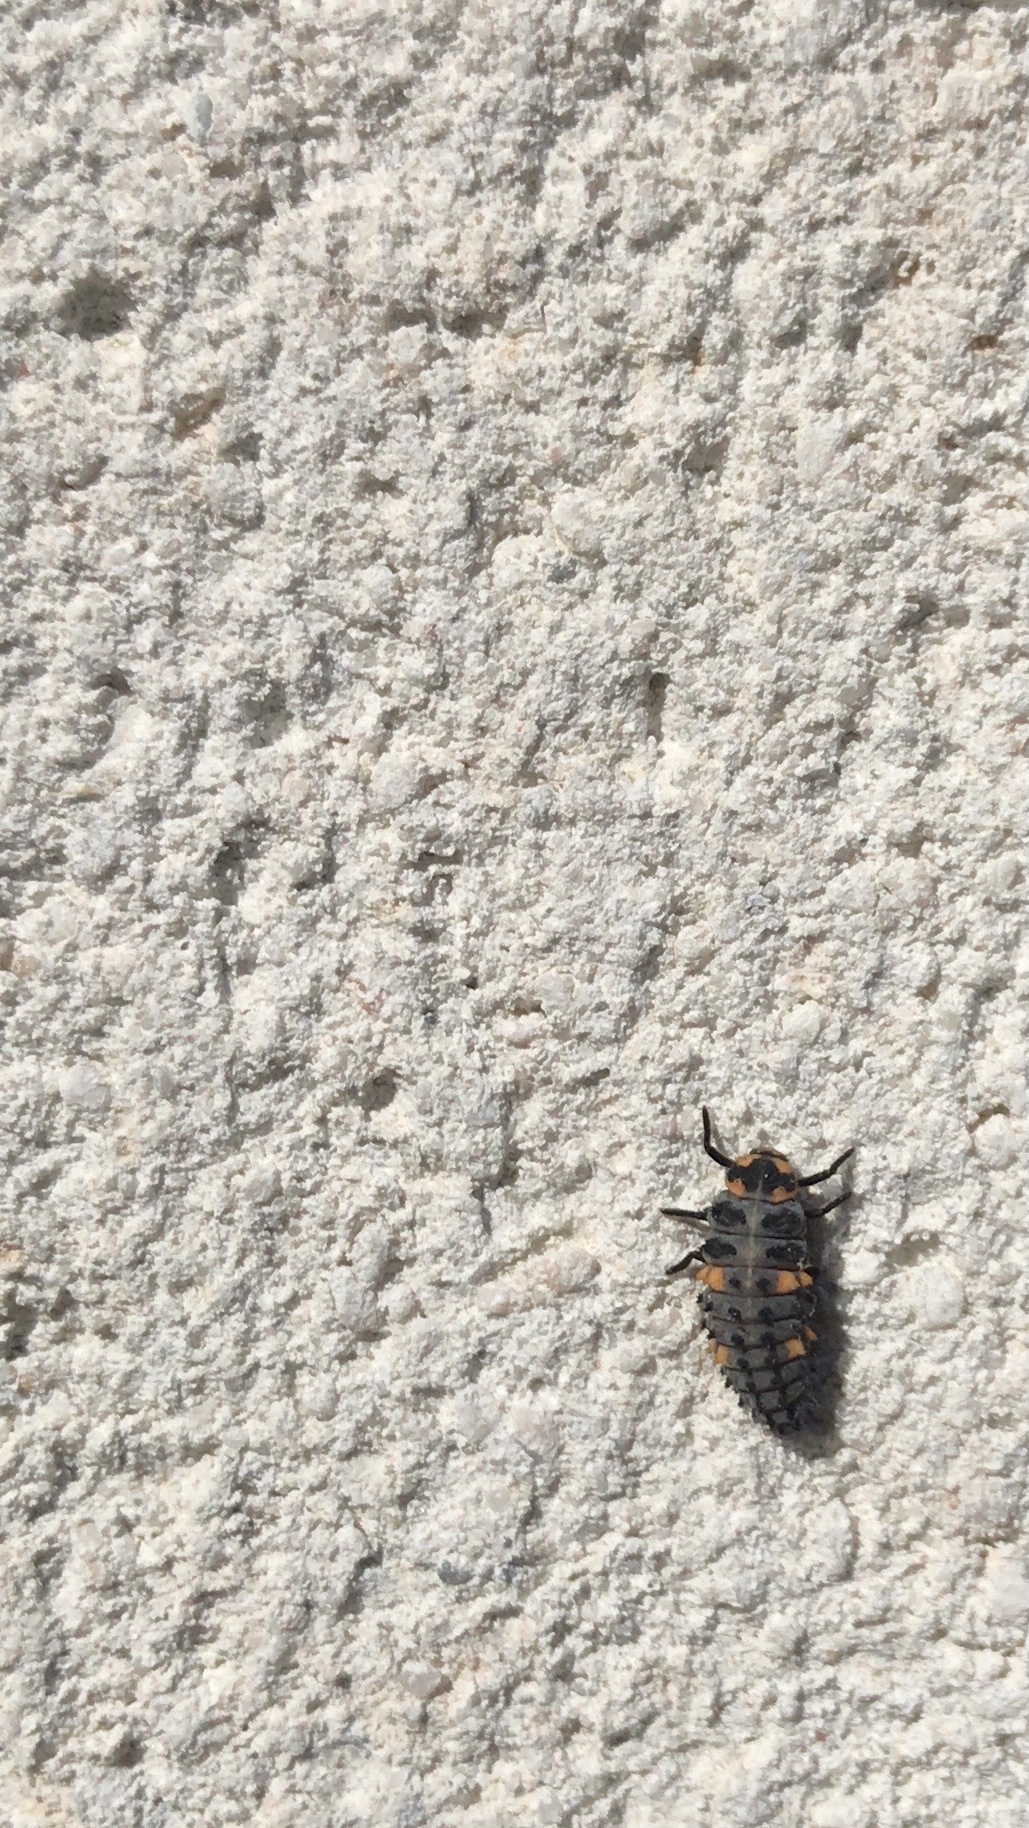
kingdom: Animalia
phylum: Arthropoda
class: Insecta
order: Coleoptera
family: Coccinellidae
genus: Coccinella
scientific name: Coccinella septempunctata
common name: Sevenspotted lady beetle
